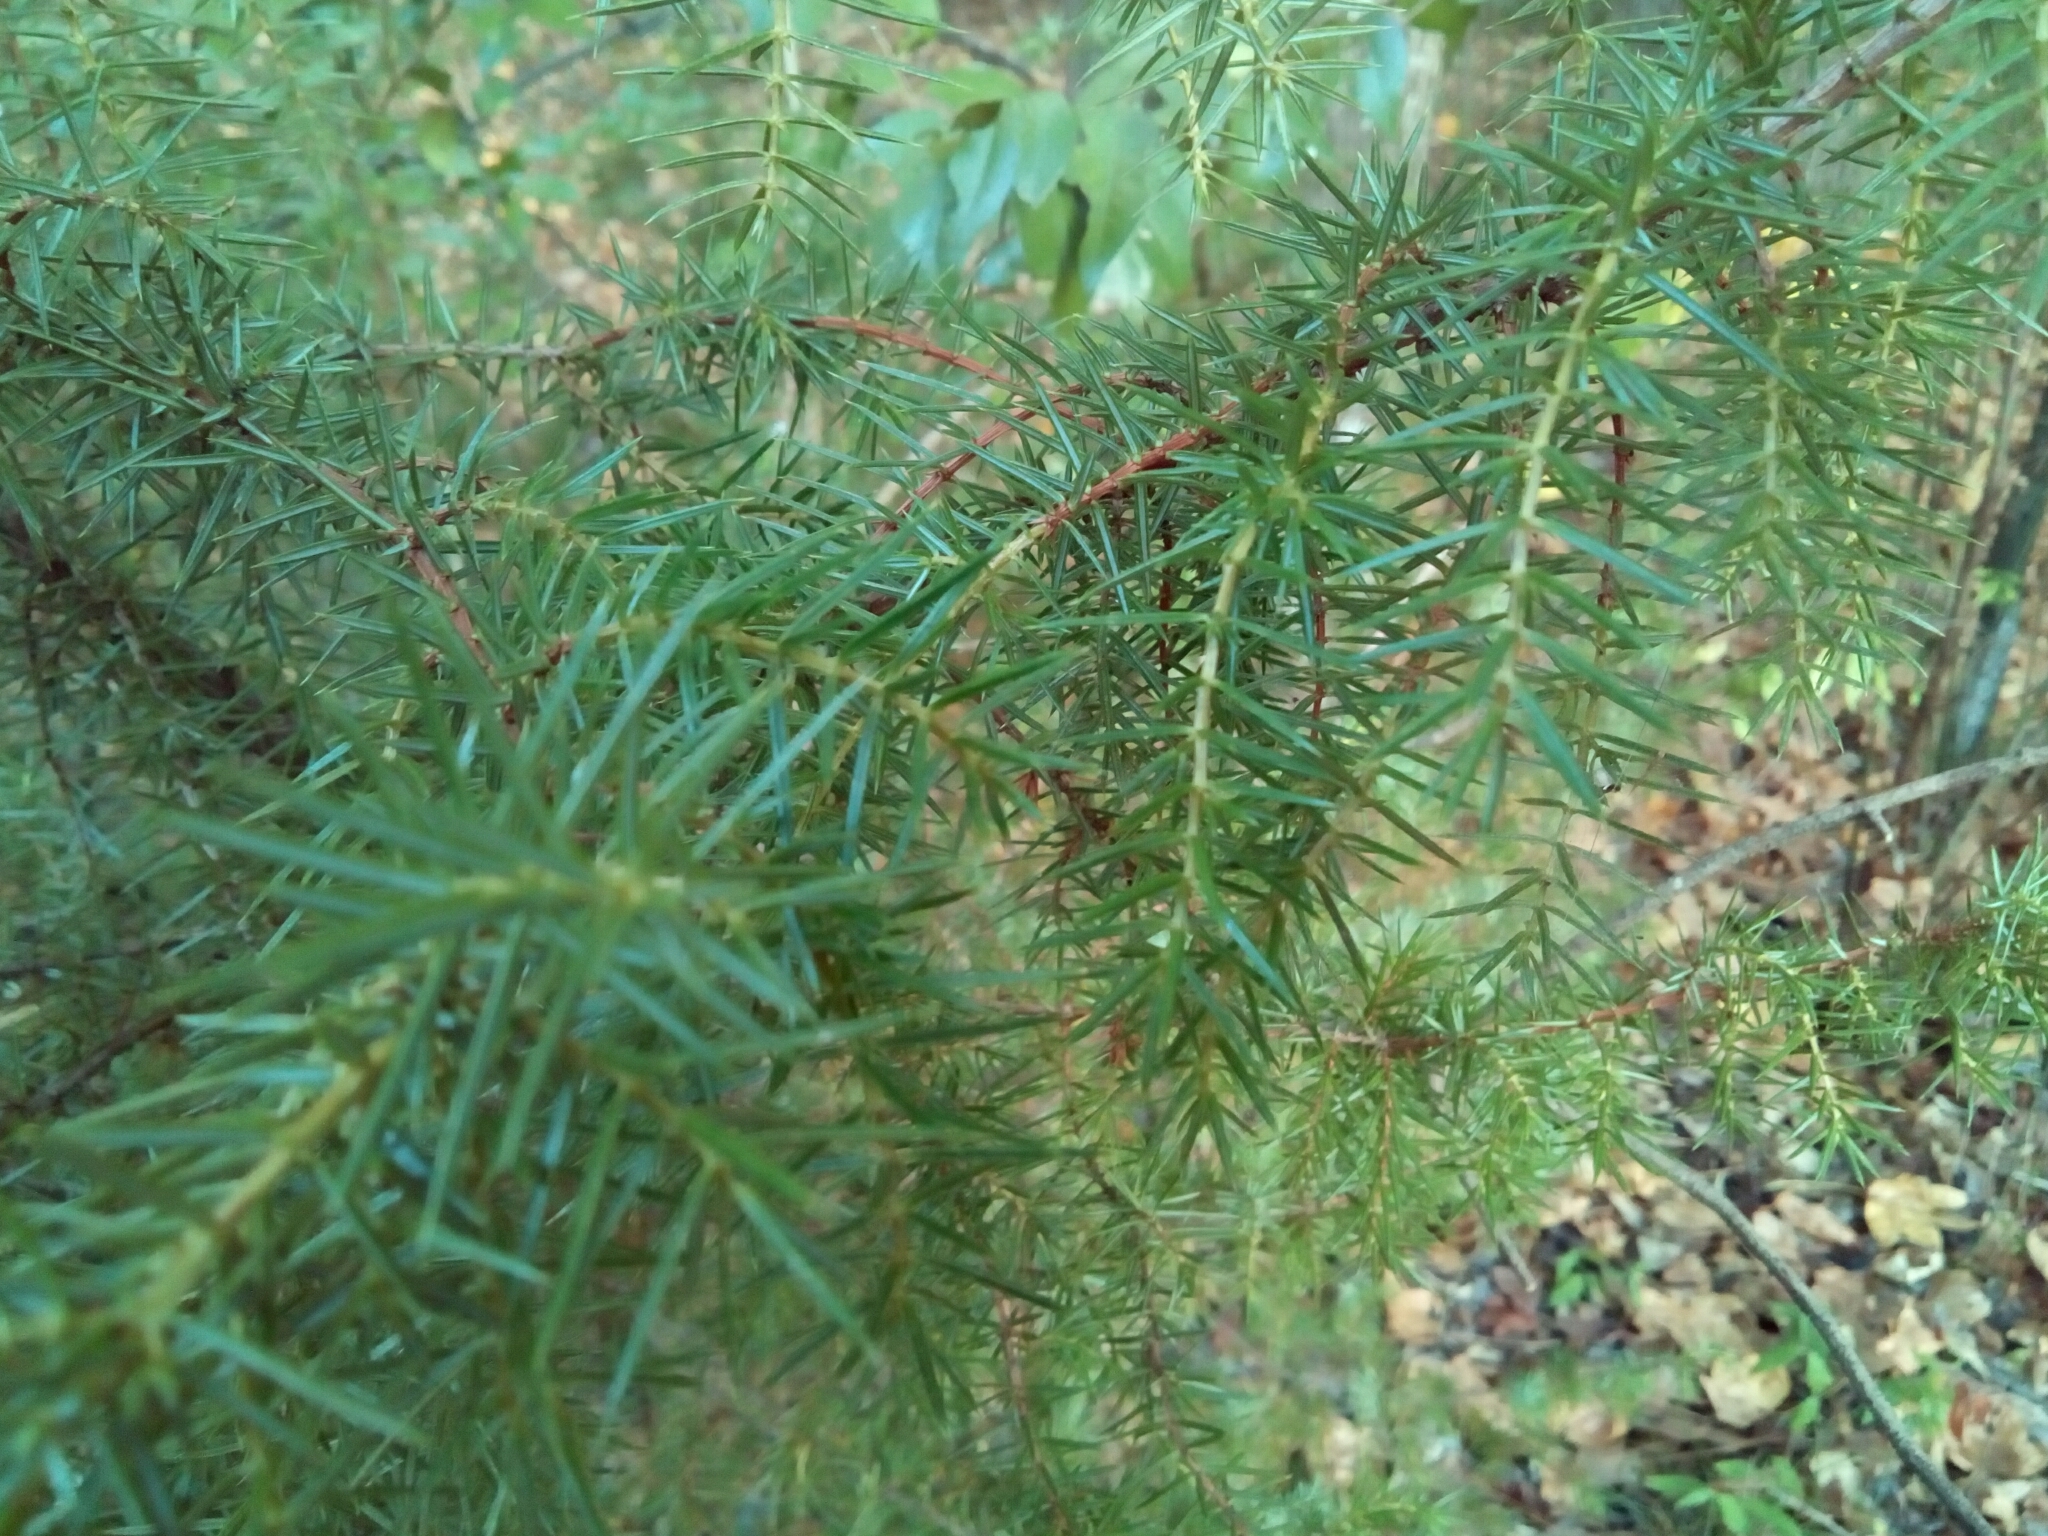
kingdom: Plantae
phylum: Tracheophyta
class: Pinopsida
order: Pinales
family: Cupressaceae
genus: Juniperus
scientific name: Juniperus virginiana
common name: Red juniper
